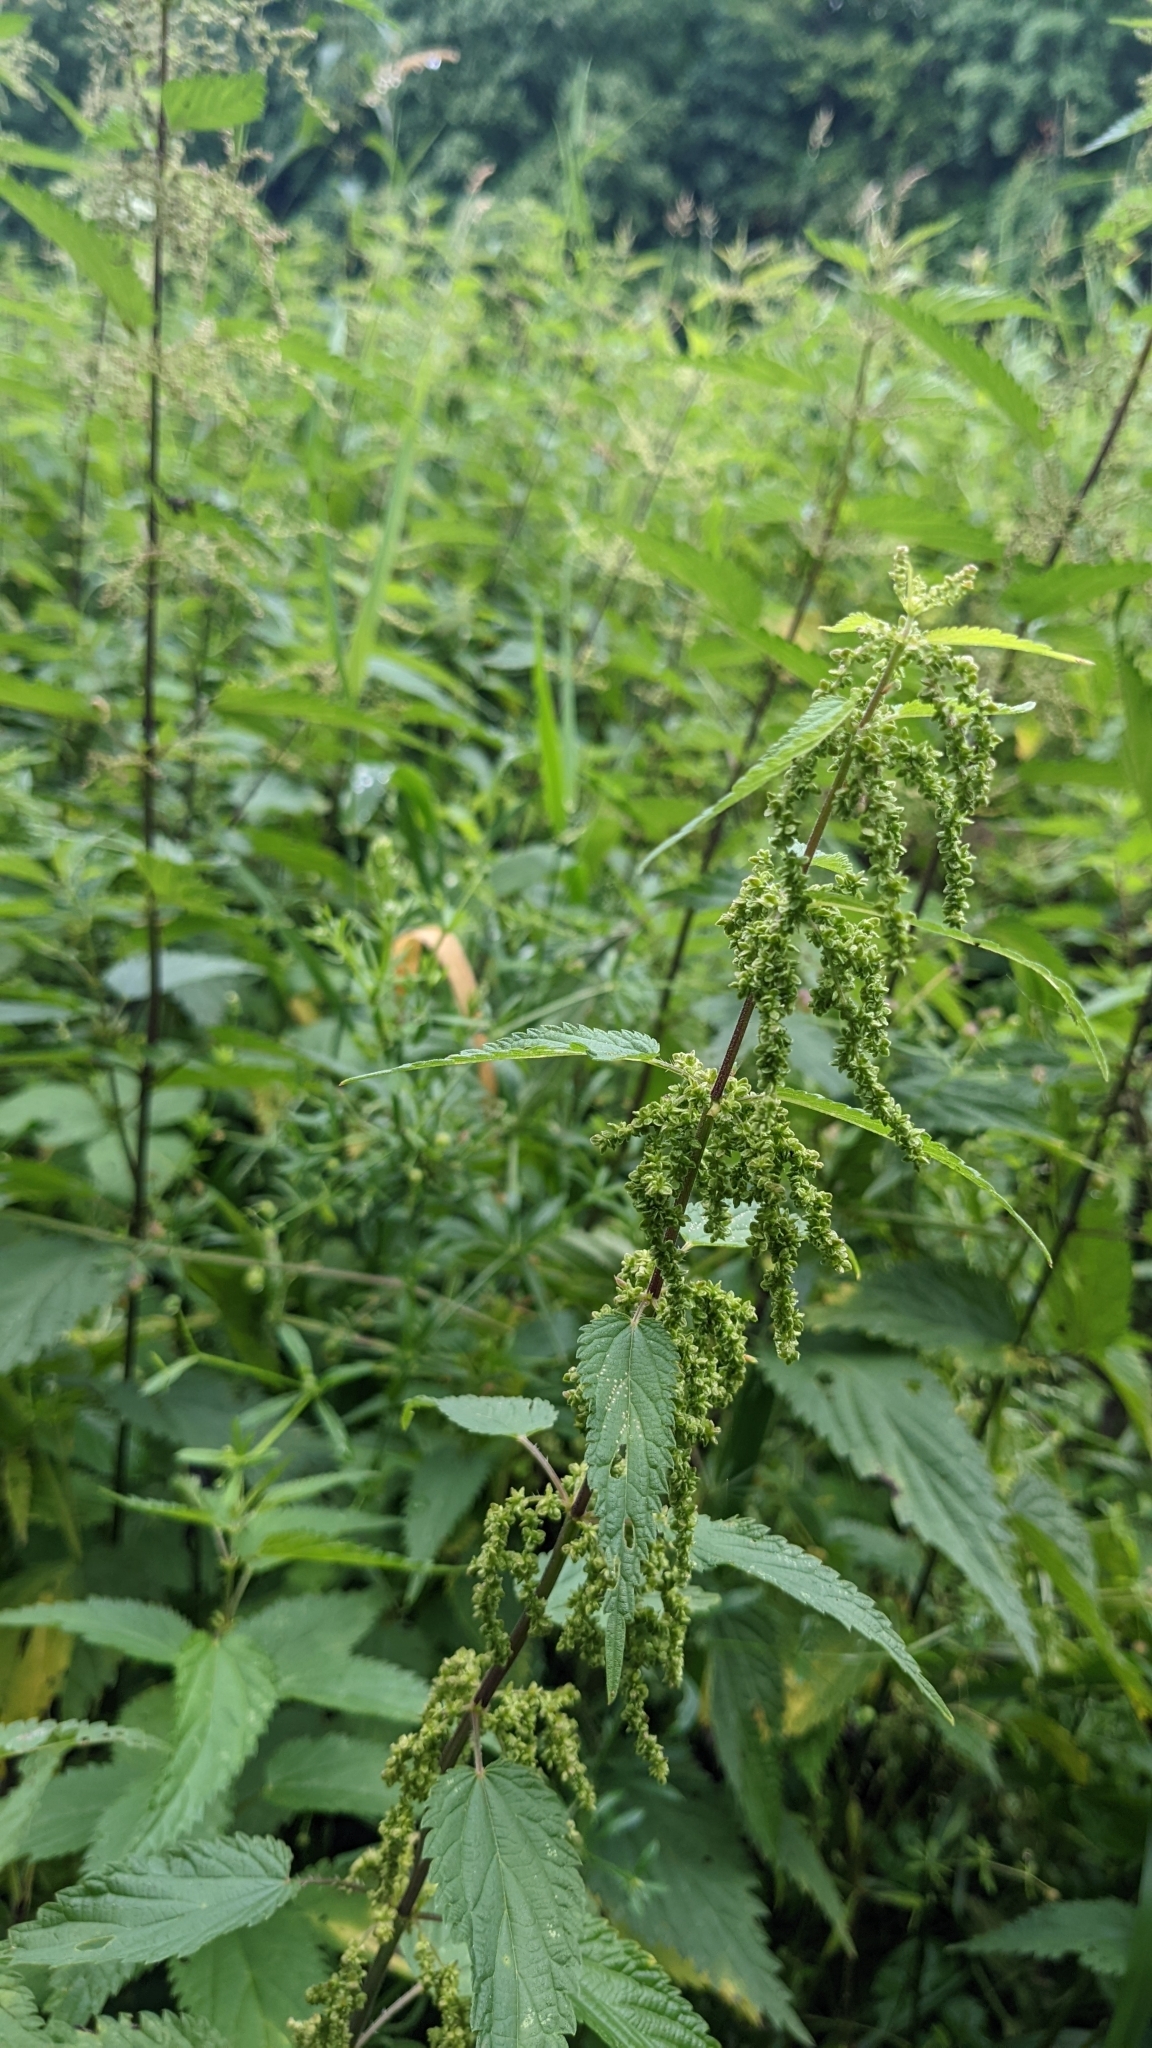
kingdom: Plantae
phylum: Tracheophyta
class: Magnoliopsida
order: Rosales
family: Urticaceae
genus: Urtica
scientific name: Urtica dioica
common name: Common nettle
